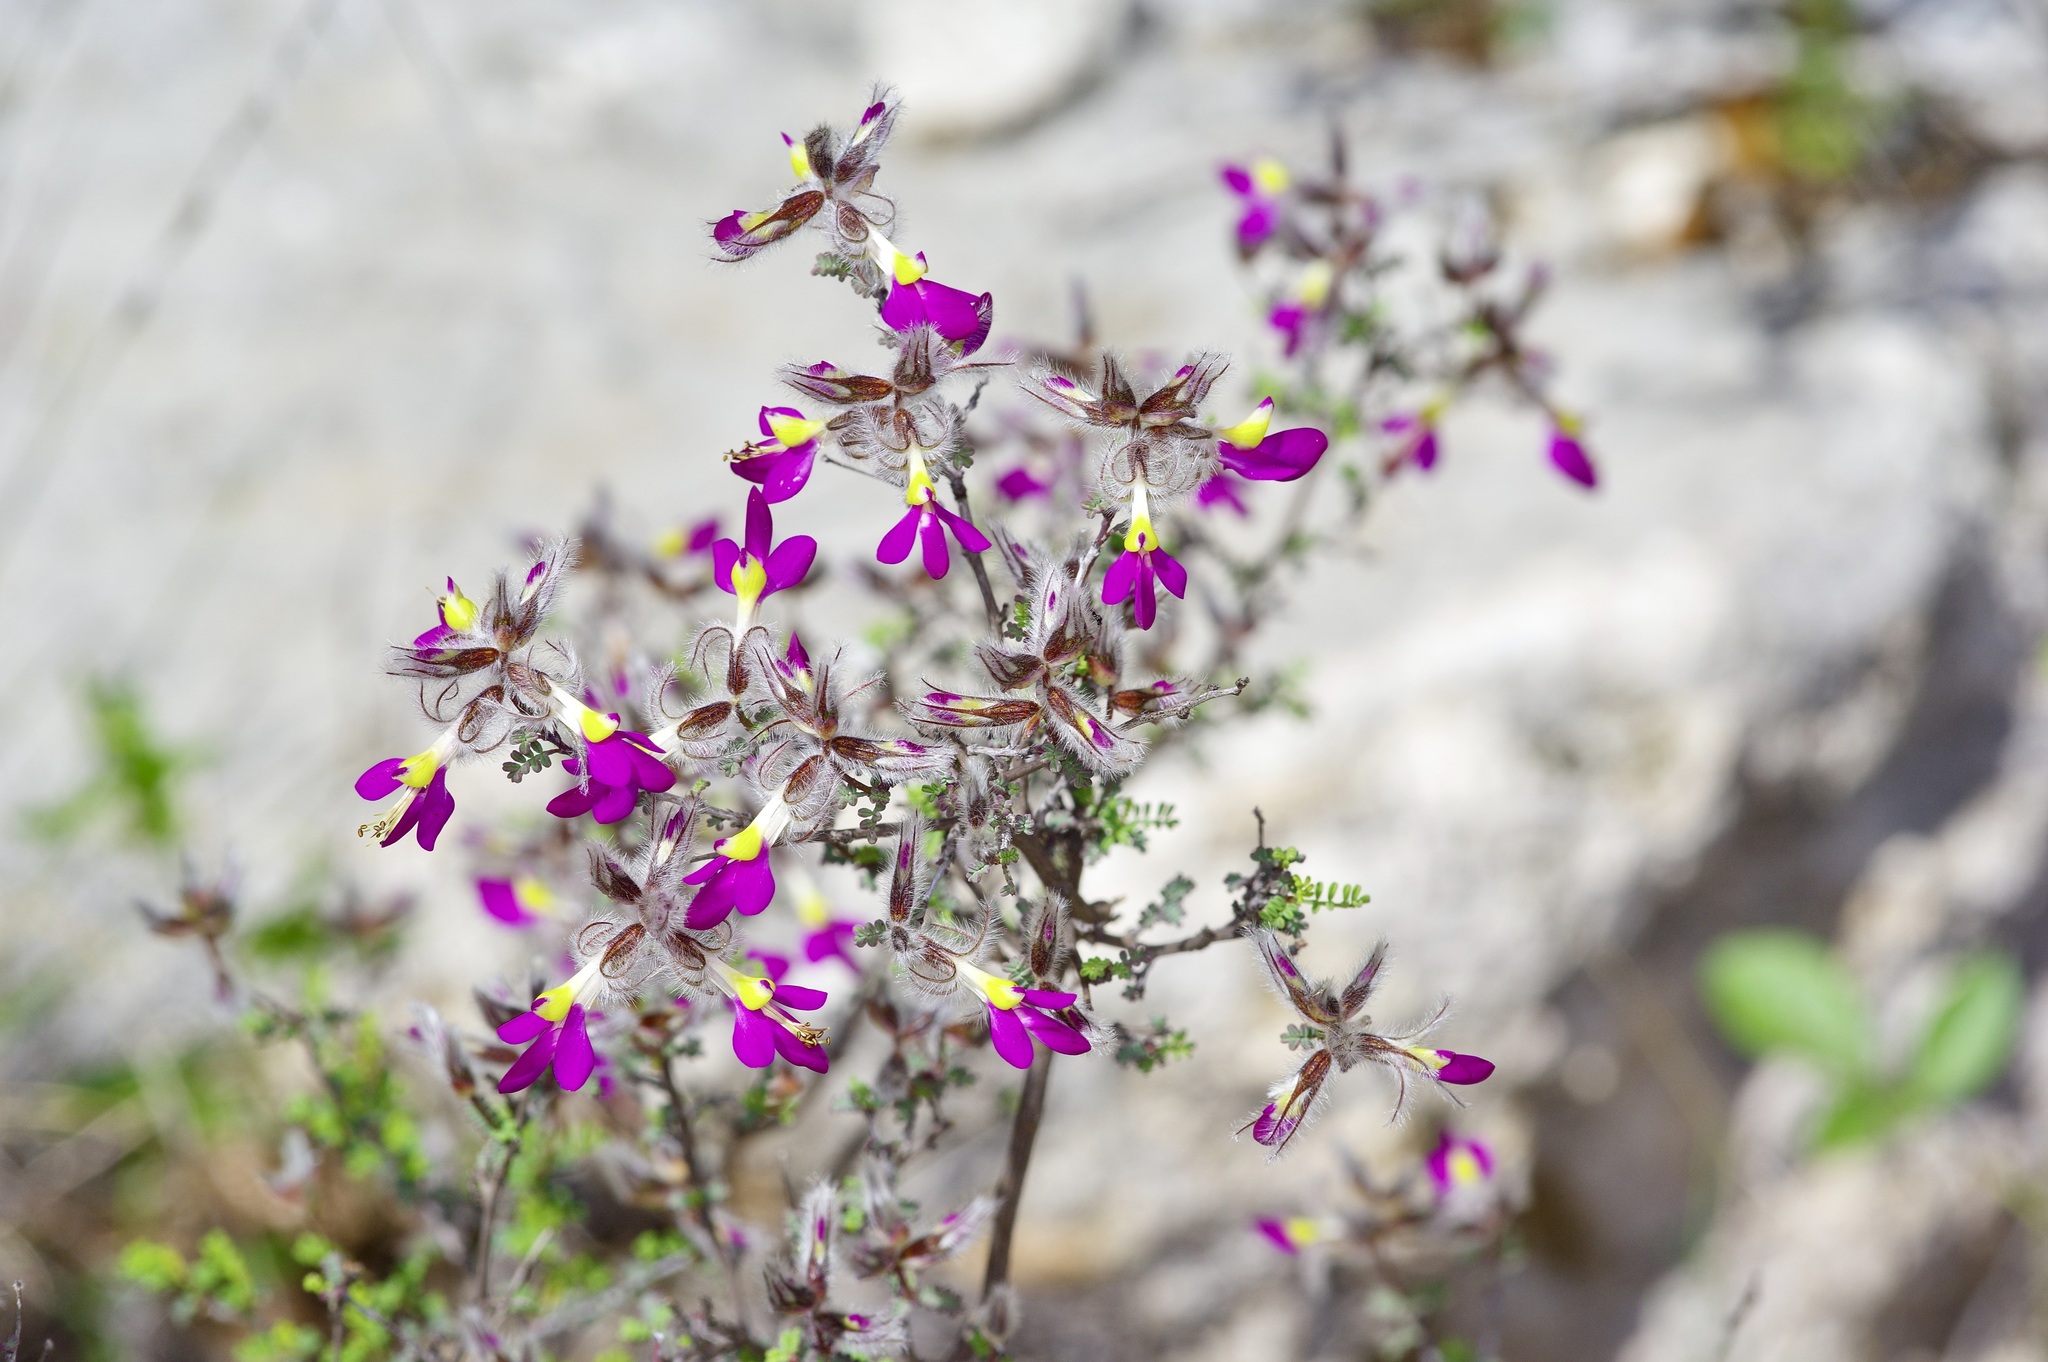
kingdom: Plantae
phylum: Tracheophyta
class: Magnoliopsida
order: Fabales
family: Fabaceae
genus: Dalea
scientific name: Dalea formosa
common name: Feather-plume dalea
